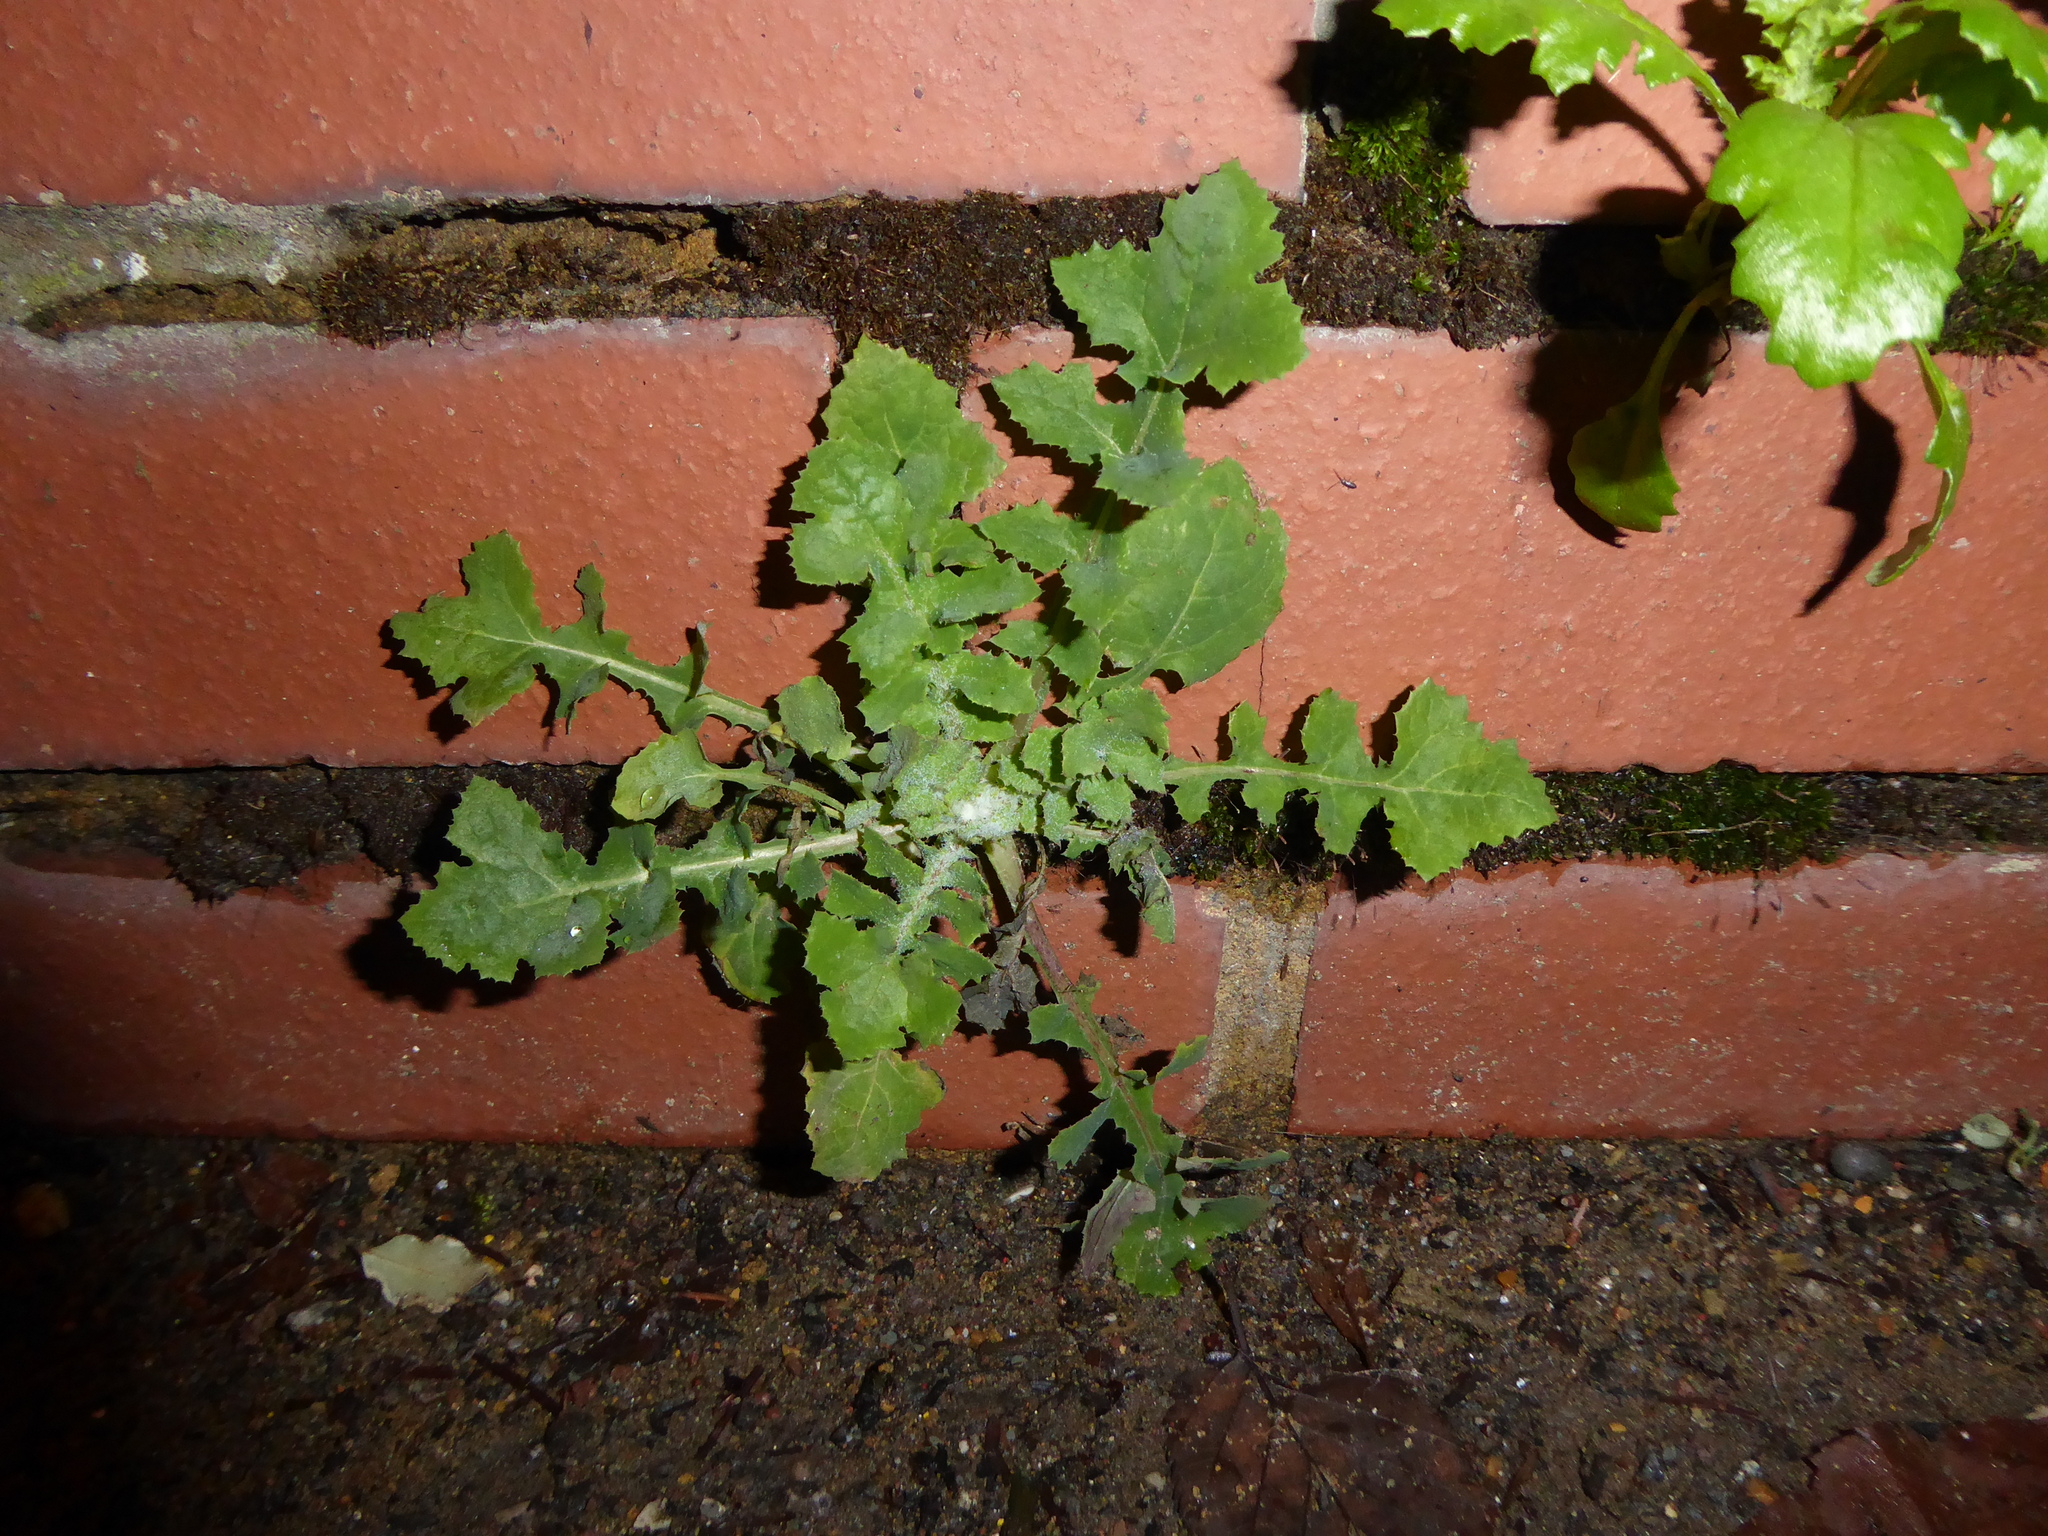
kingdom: Plantae
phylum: Tracheophyta
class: Magnoliopsida
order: Asterales
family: Asteraceae
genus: Sonchus
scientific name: Sonchus oleraceus
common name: Common sowthistle
